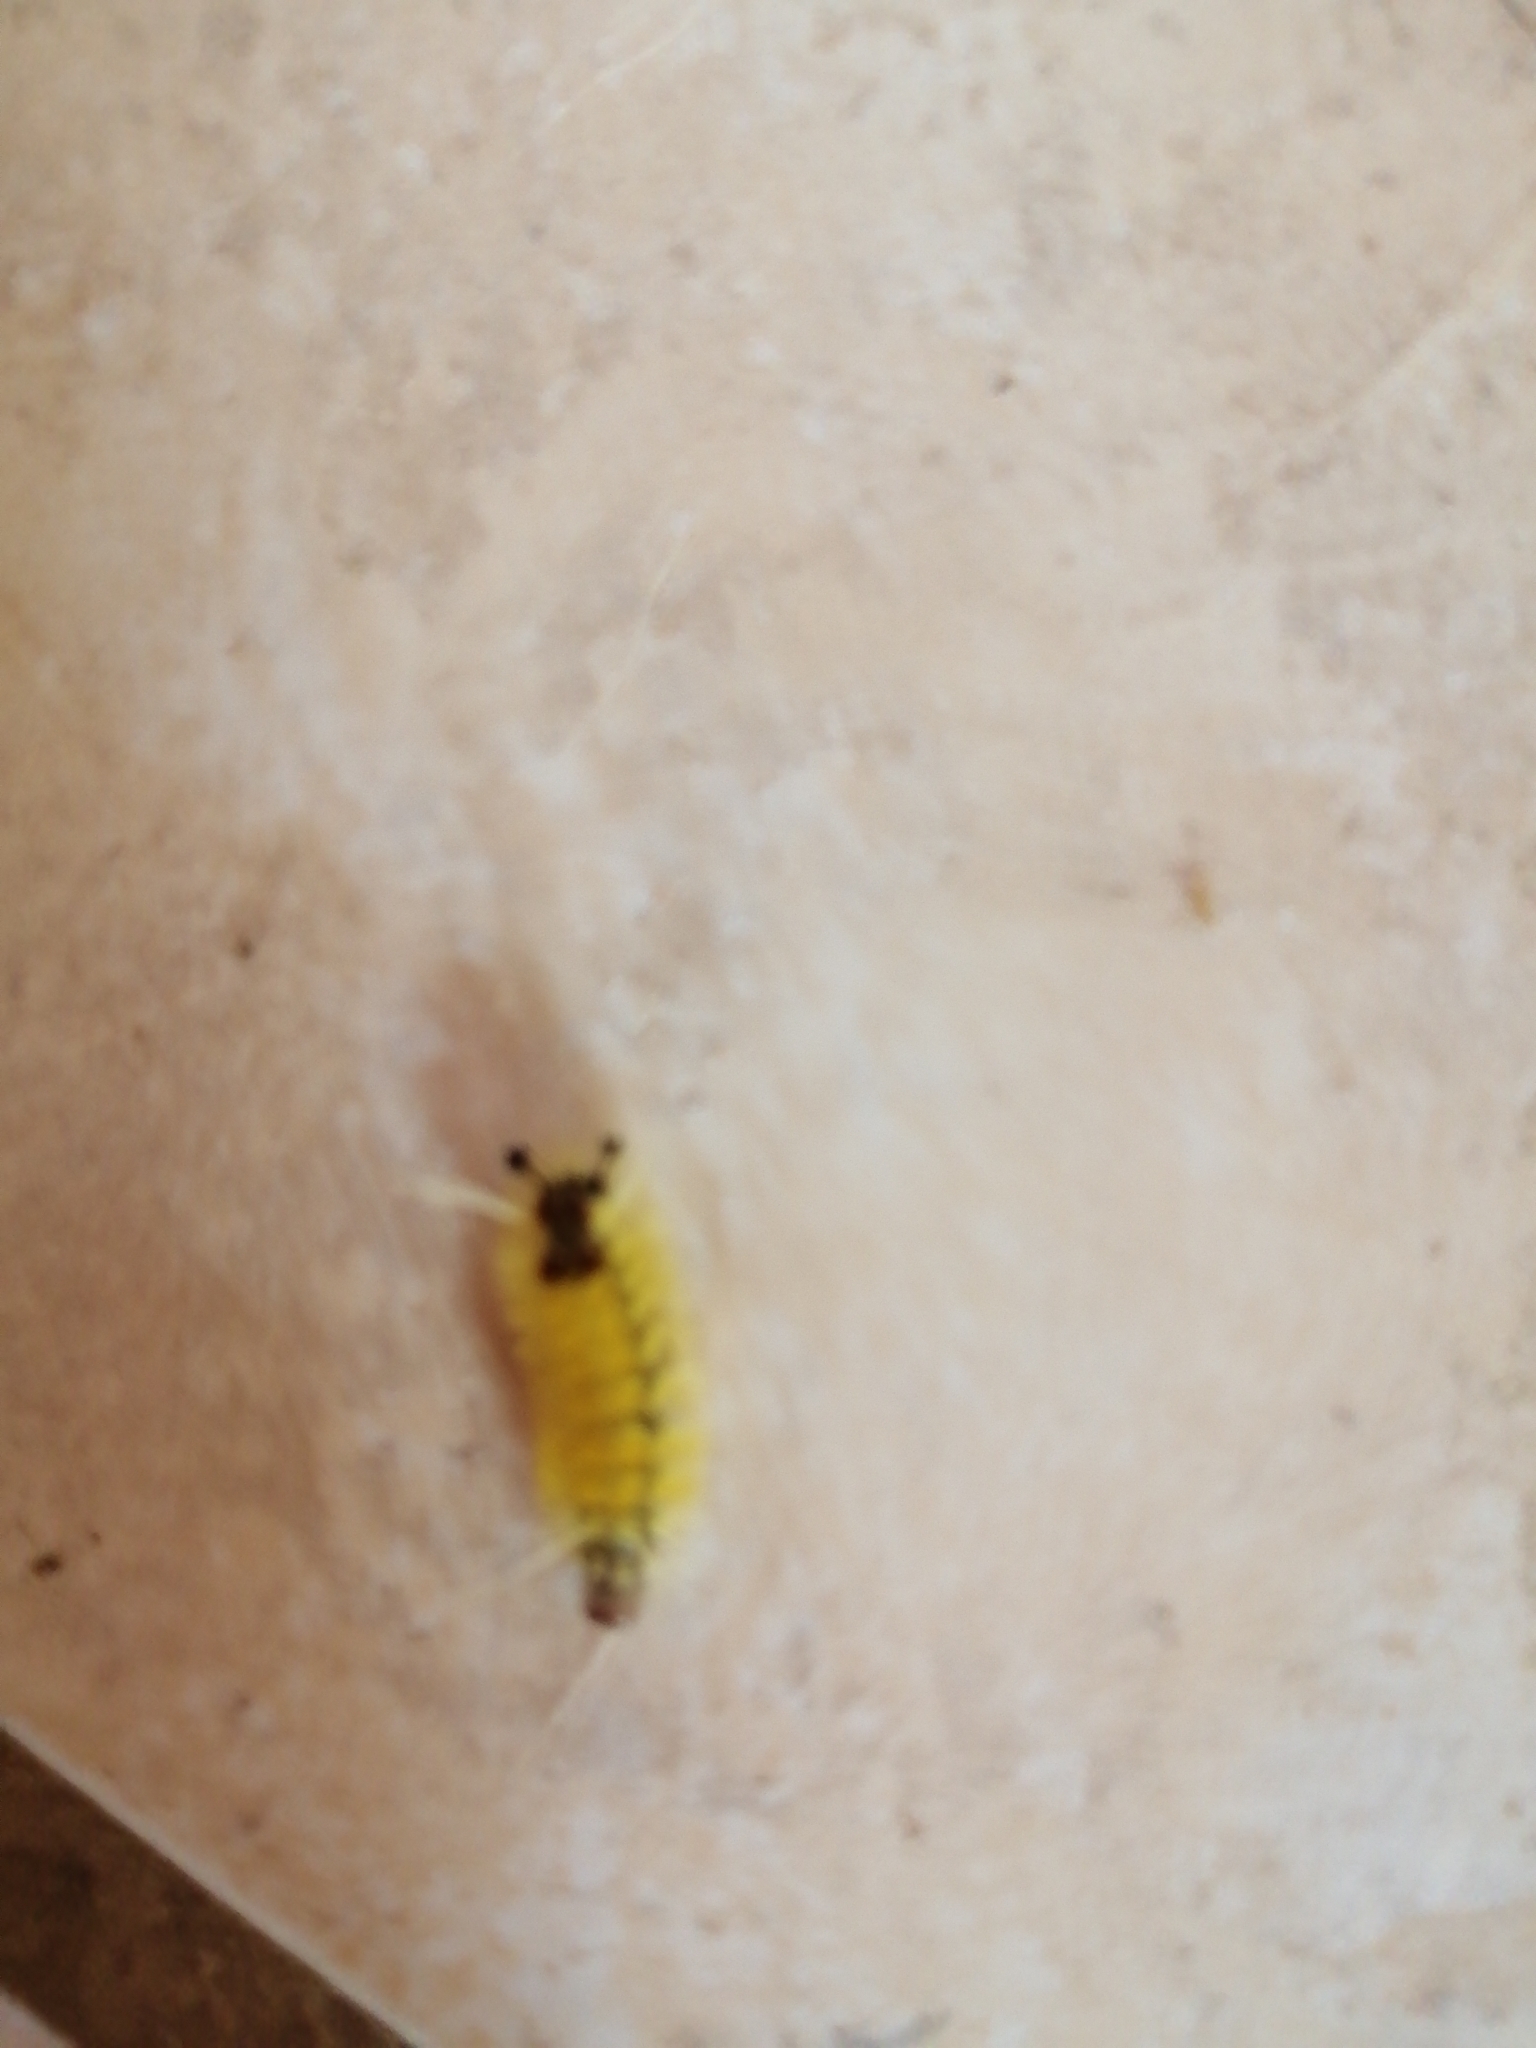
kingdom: Animalia
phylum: Arthropoda
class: Insecta
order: Lepidoptera
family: Erebidae
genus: Lophocampa
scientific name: Lophocampa annulosa
